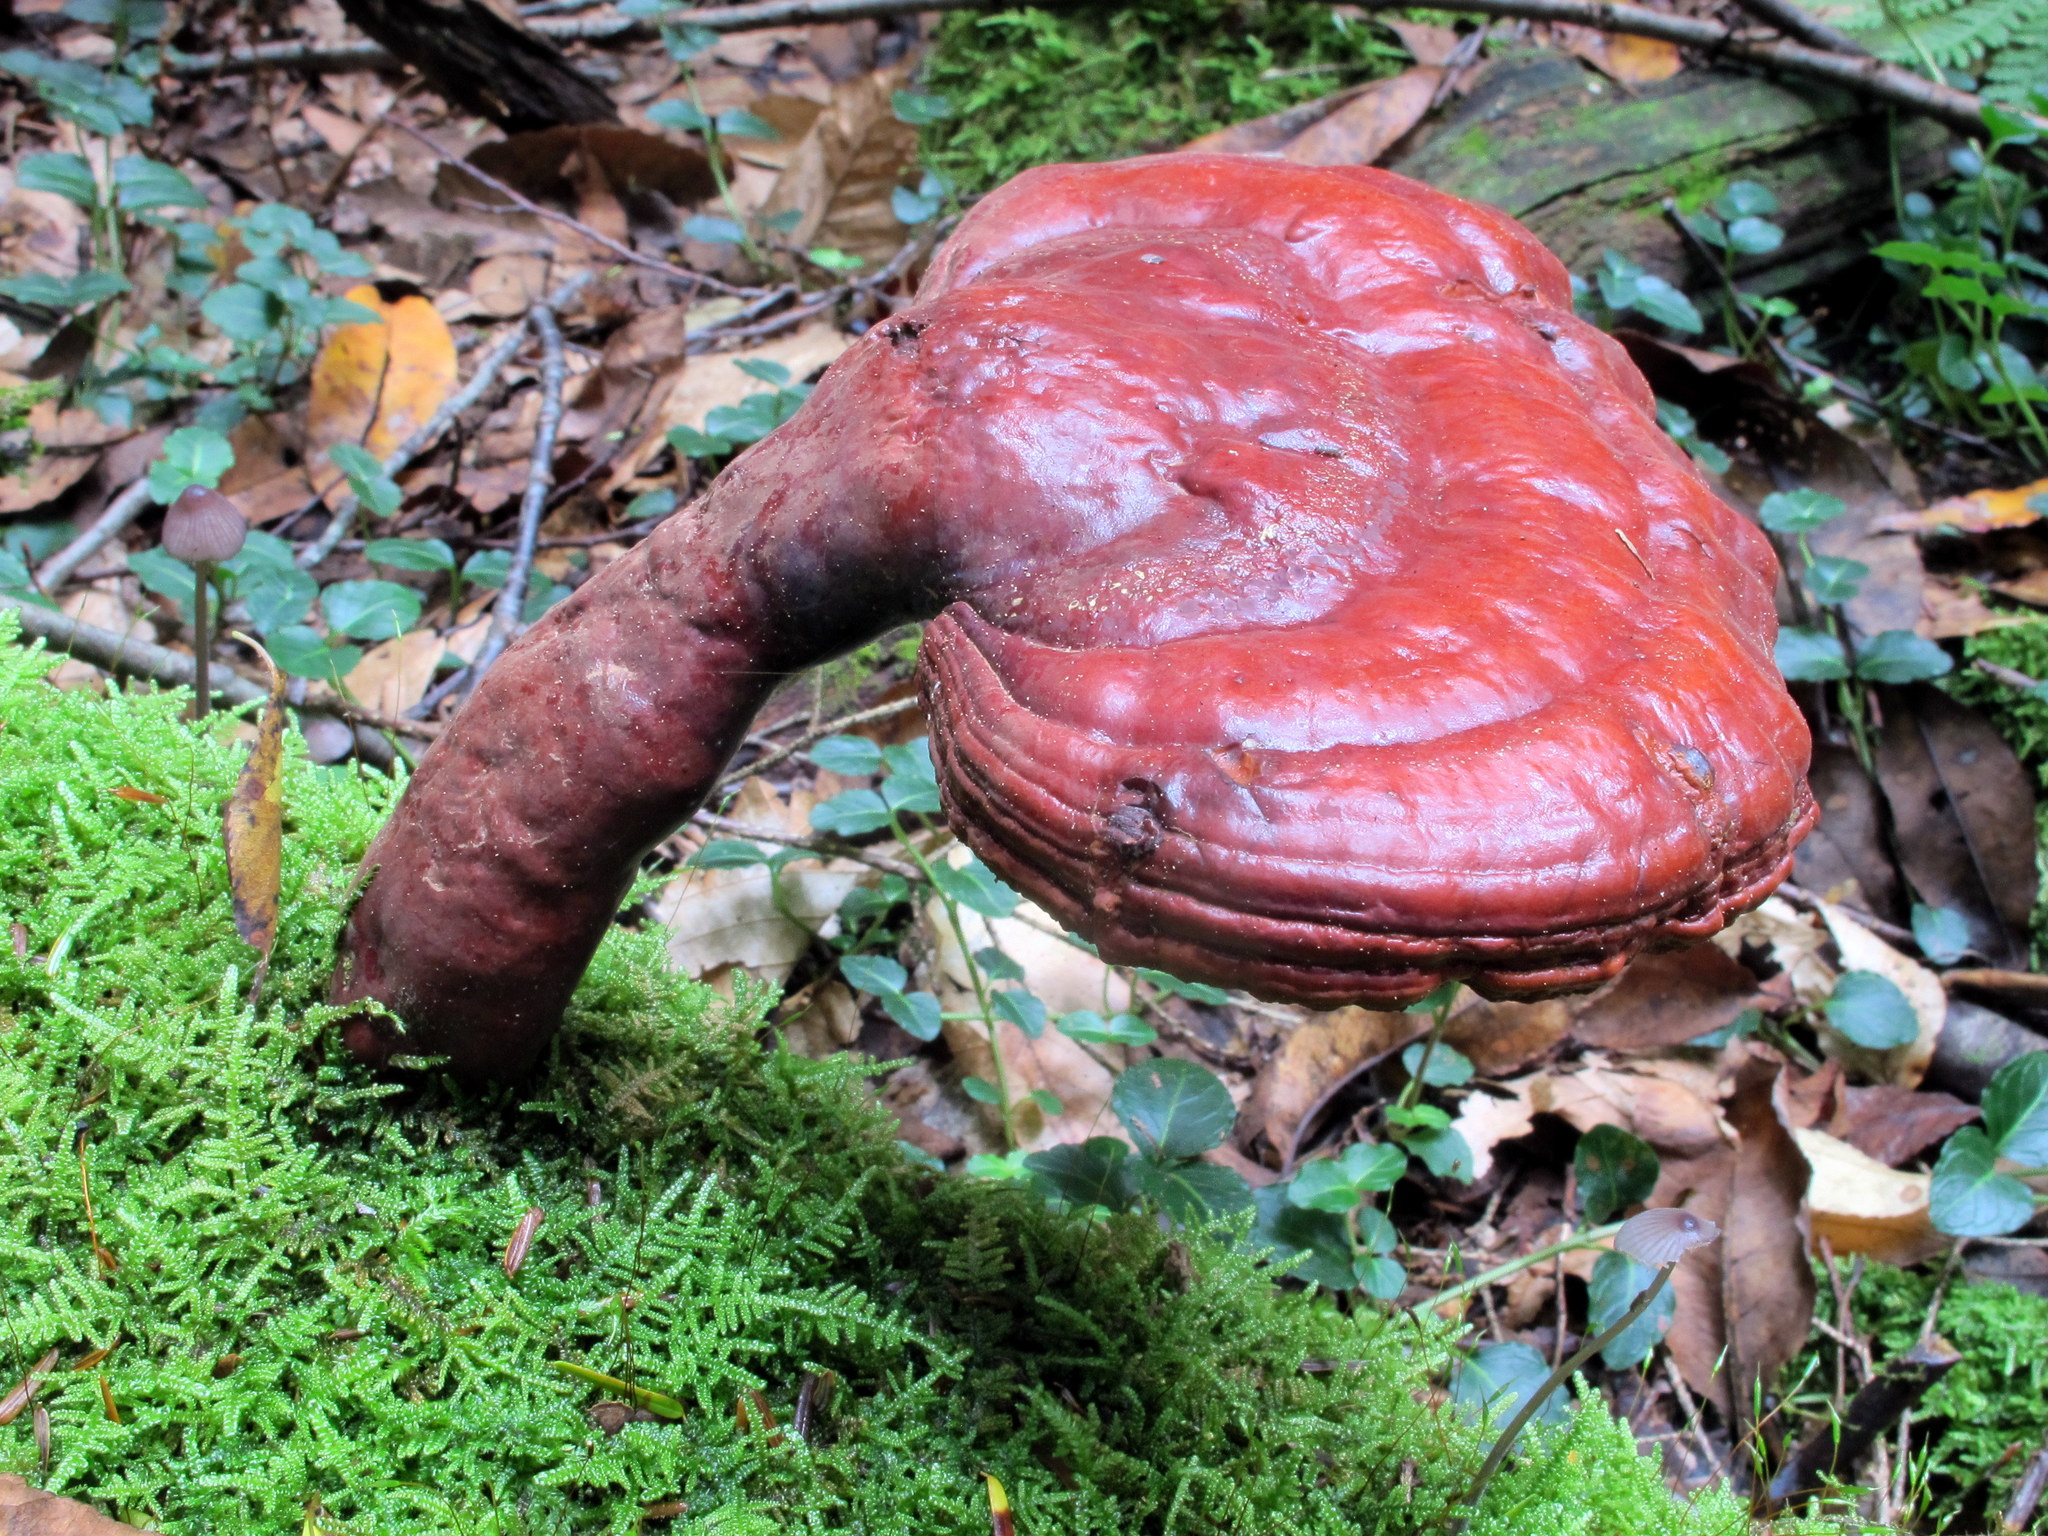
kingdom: Fungi
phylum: Basidiomycota
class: Agaricomycetes
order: Polyporales
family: Polyporaceae
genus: Ganoderma
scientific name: Ganoderma tsugae
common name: Hemlock varnish shelf
